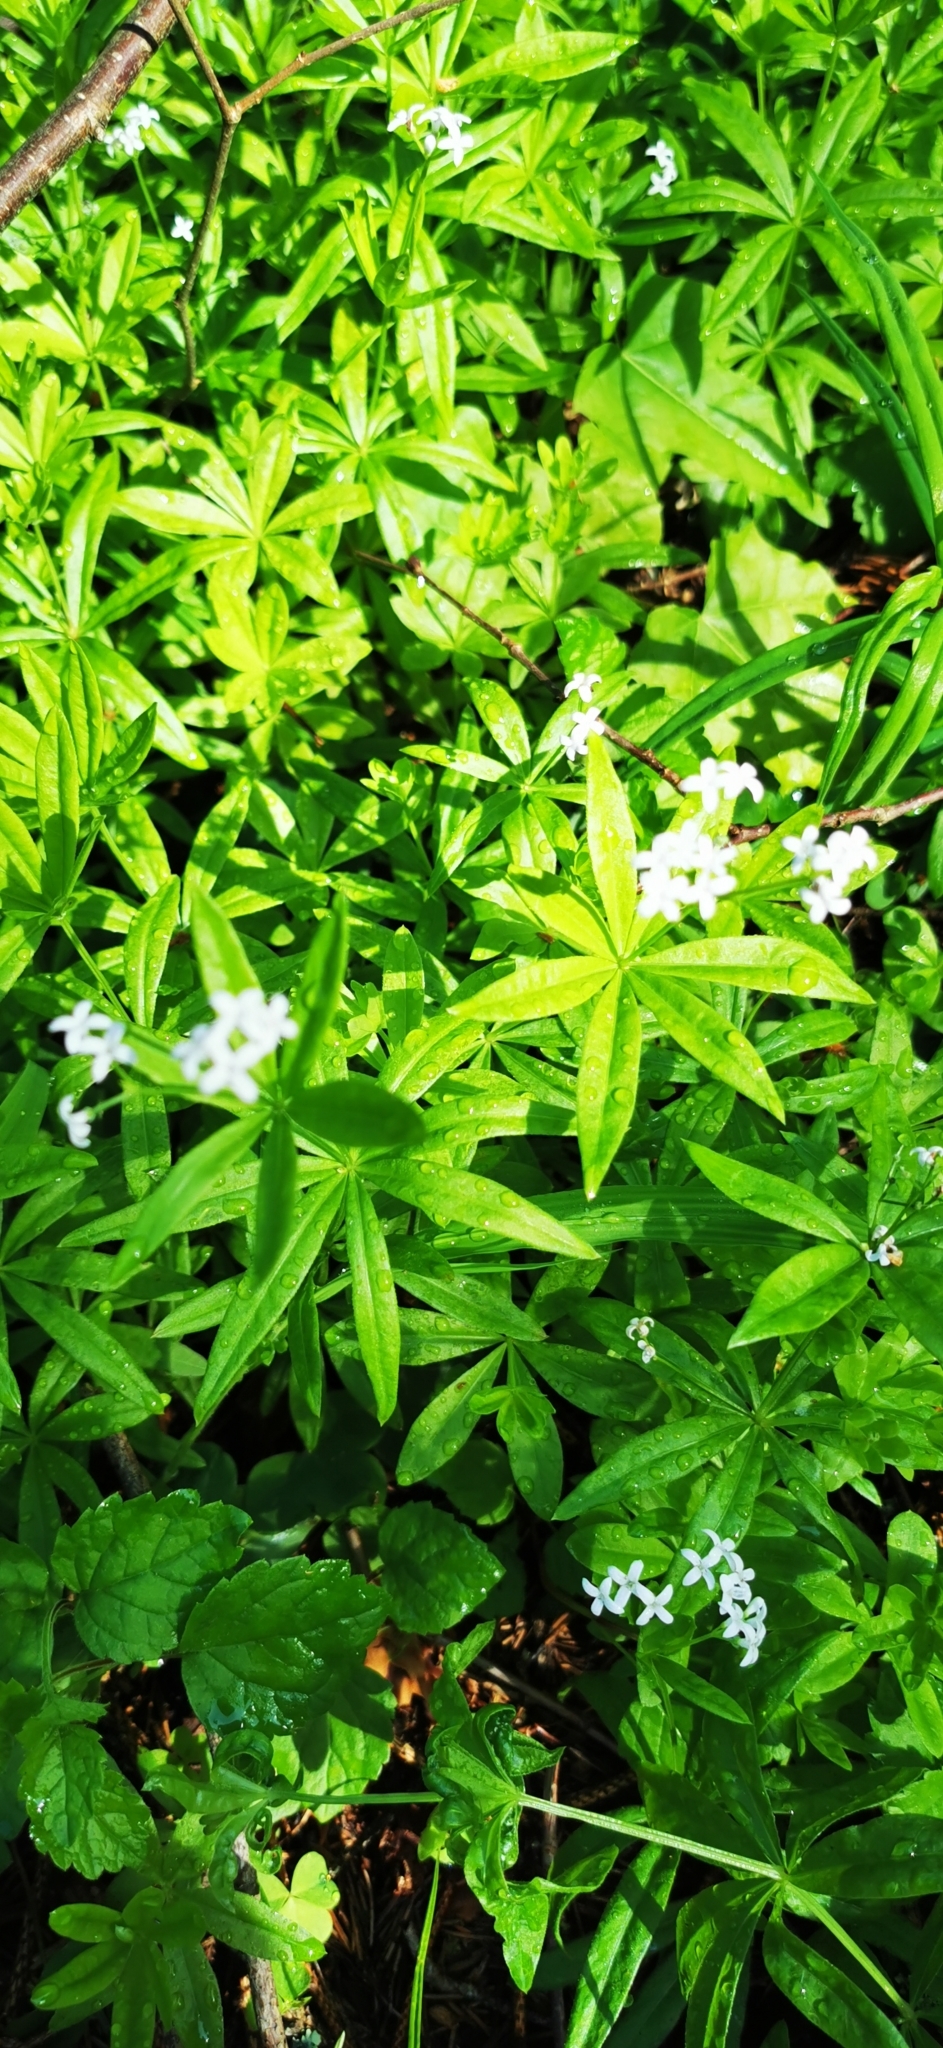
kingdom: Plantae
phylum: Tracheophyta
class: Magnoliopsida
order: Gentianales
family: Rubiaceae
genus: Galium
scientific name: Galium odoratum
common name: Sweet woodruff
